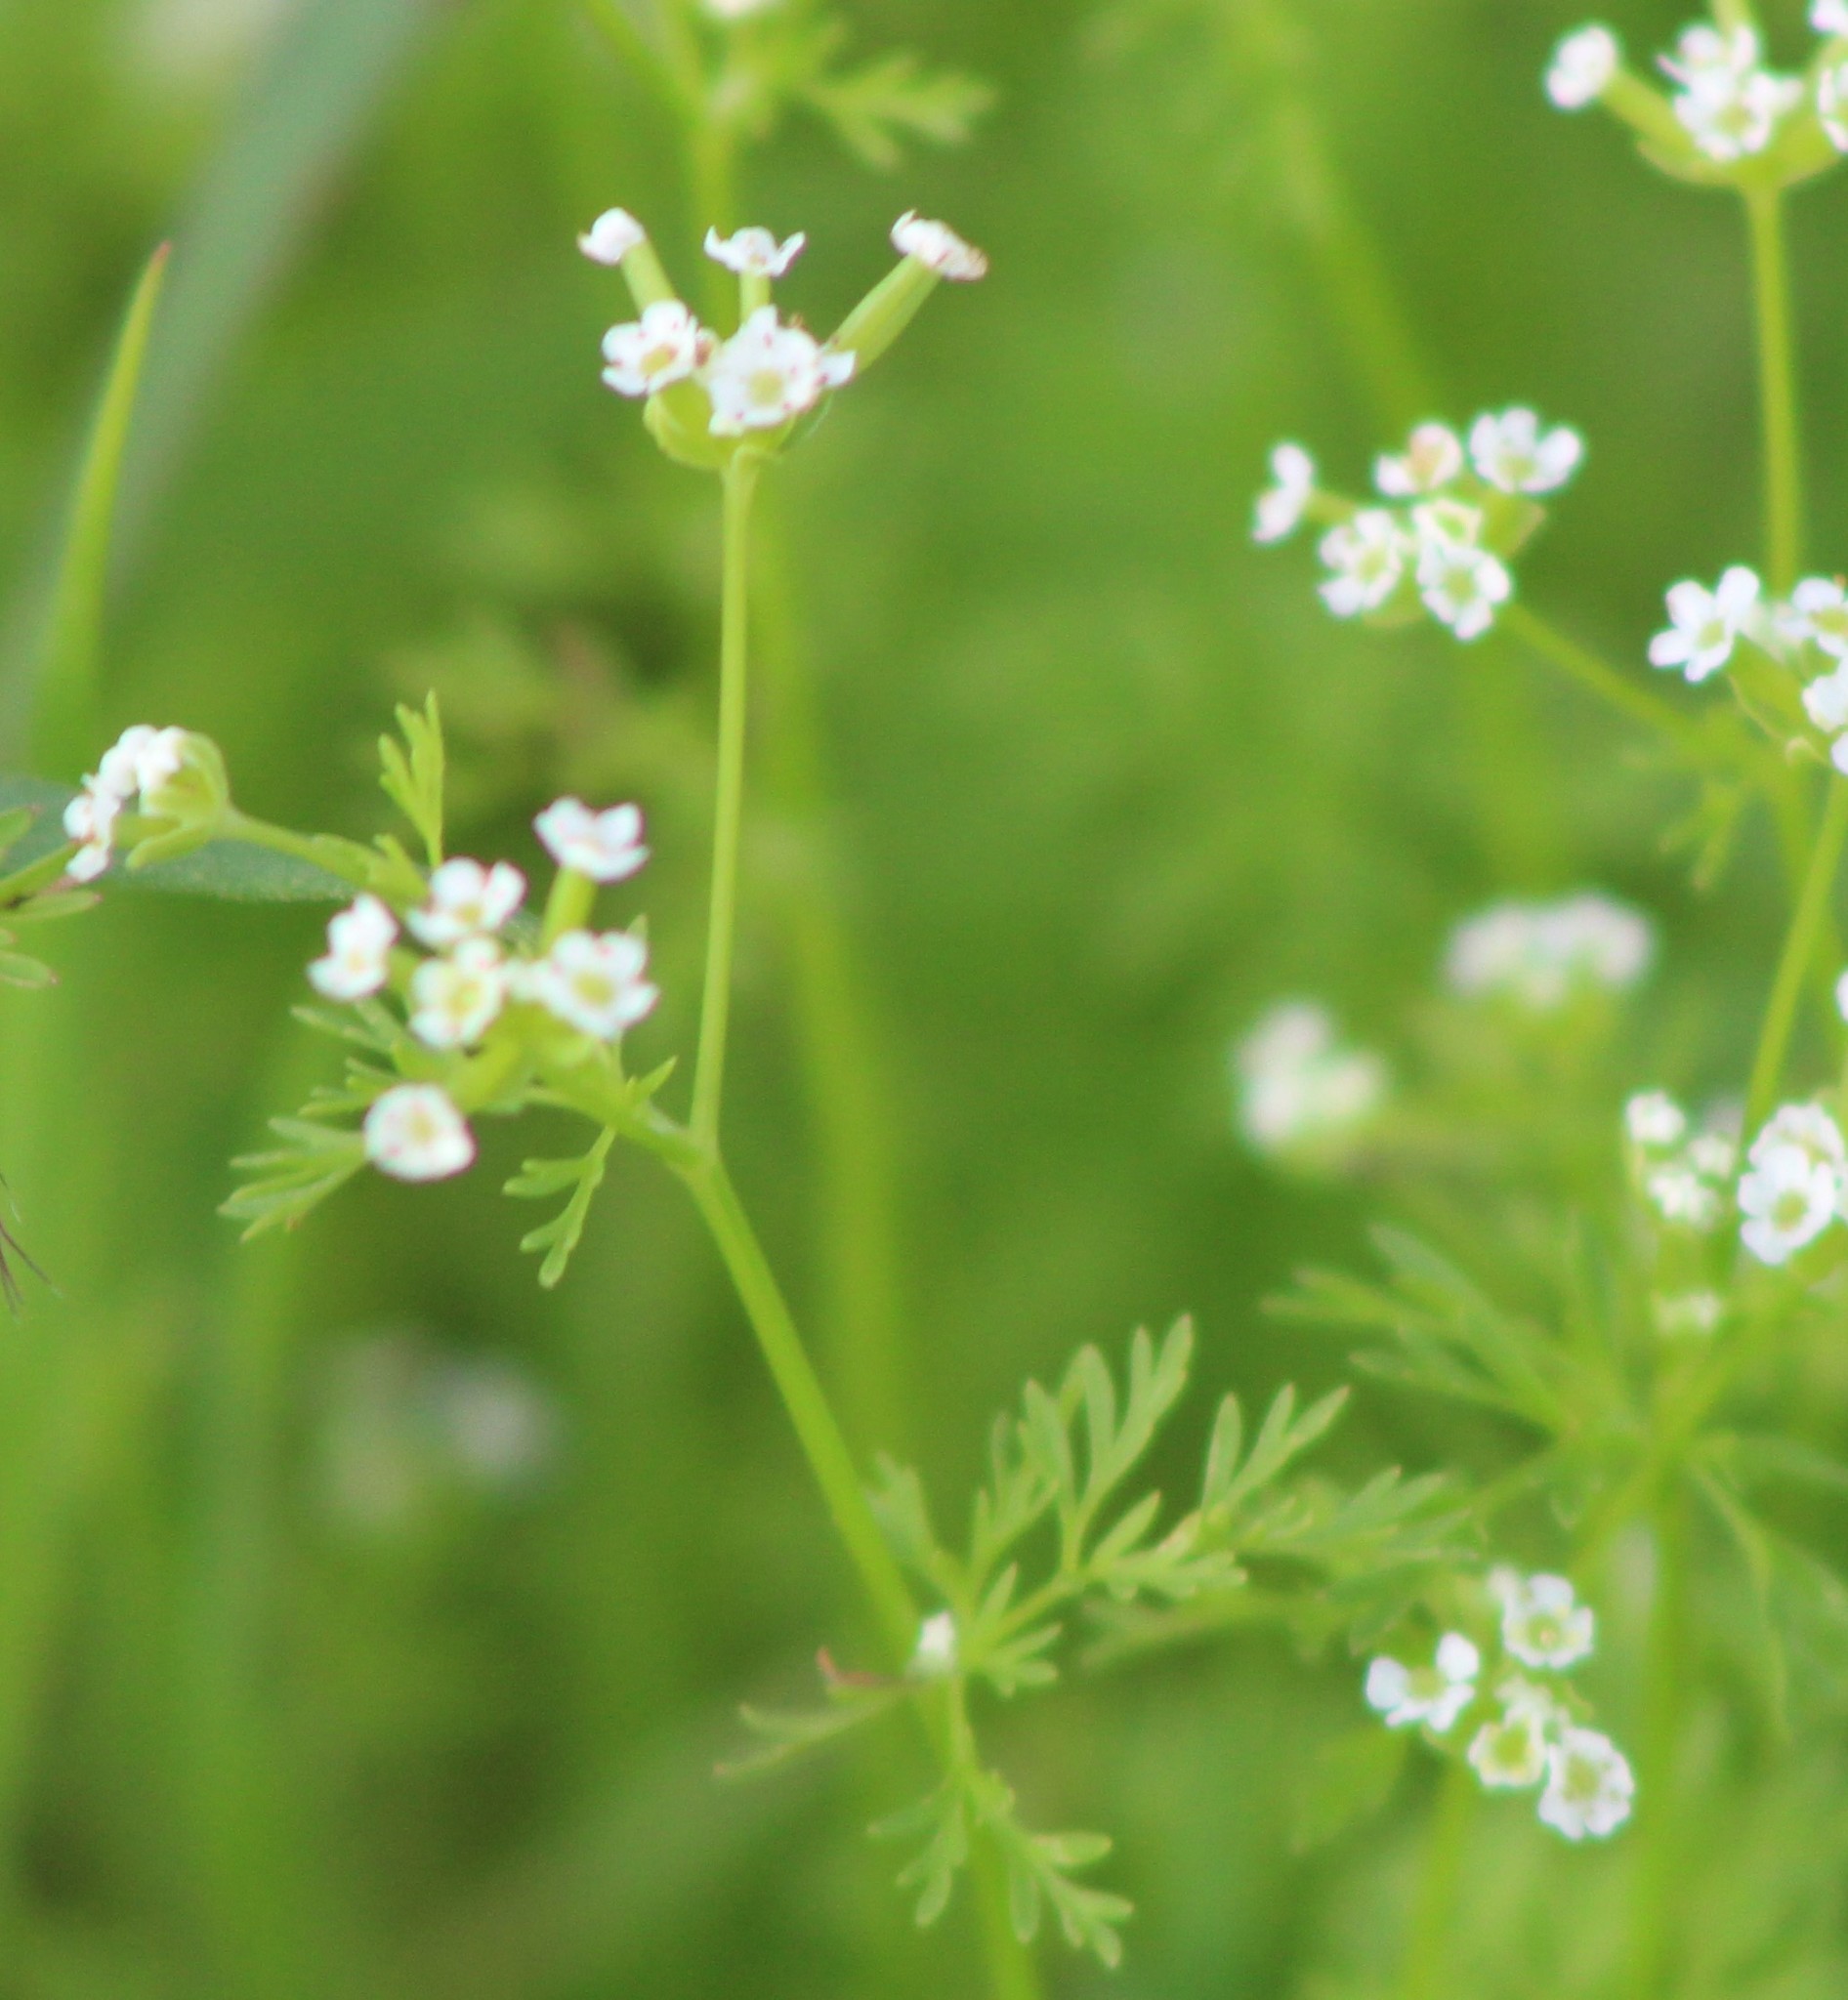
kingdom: Plantae
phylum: Tracheophyta
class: Magnoliopsida
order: Apiales
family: Apiaceae
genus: Chaerophyllum
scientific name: Chaerophyllum tainturieri
